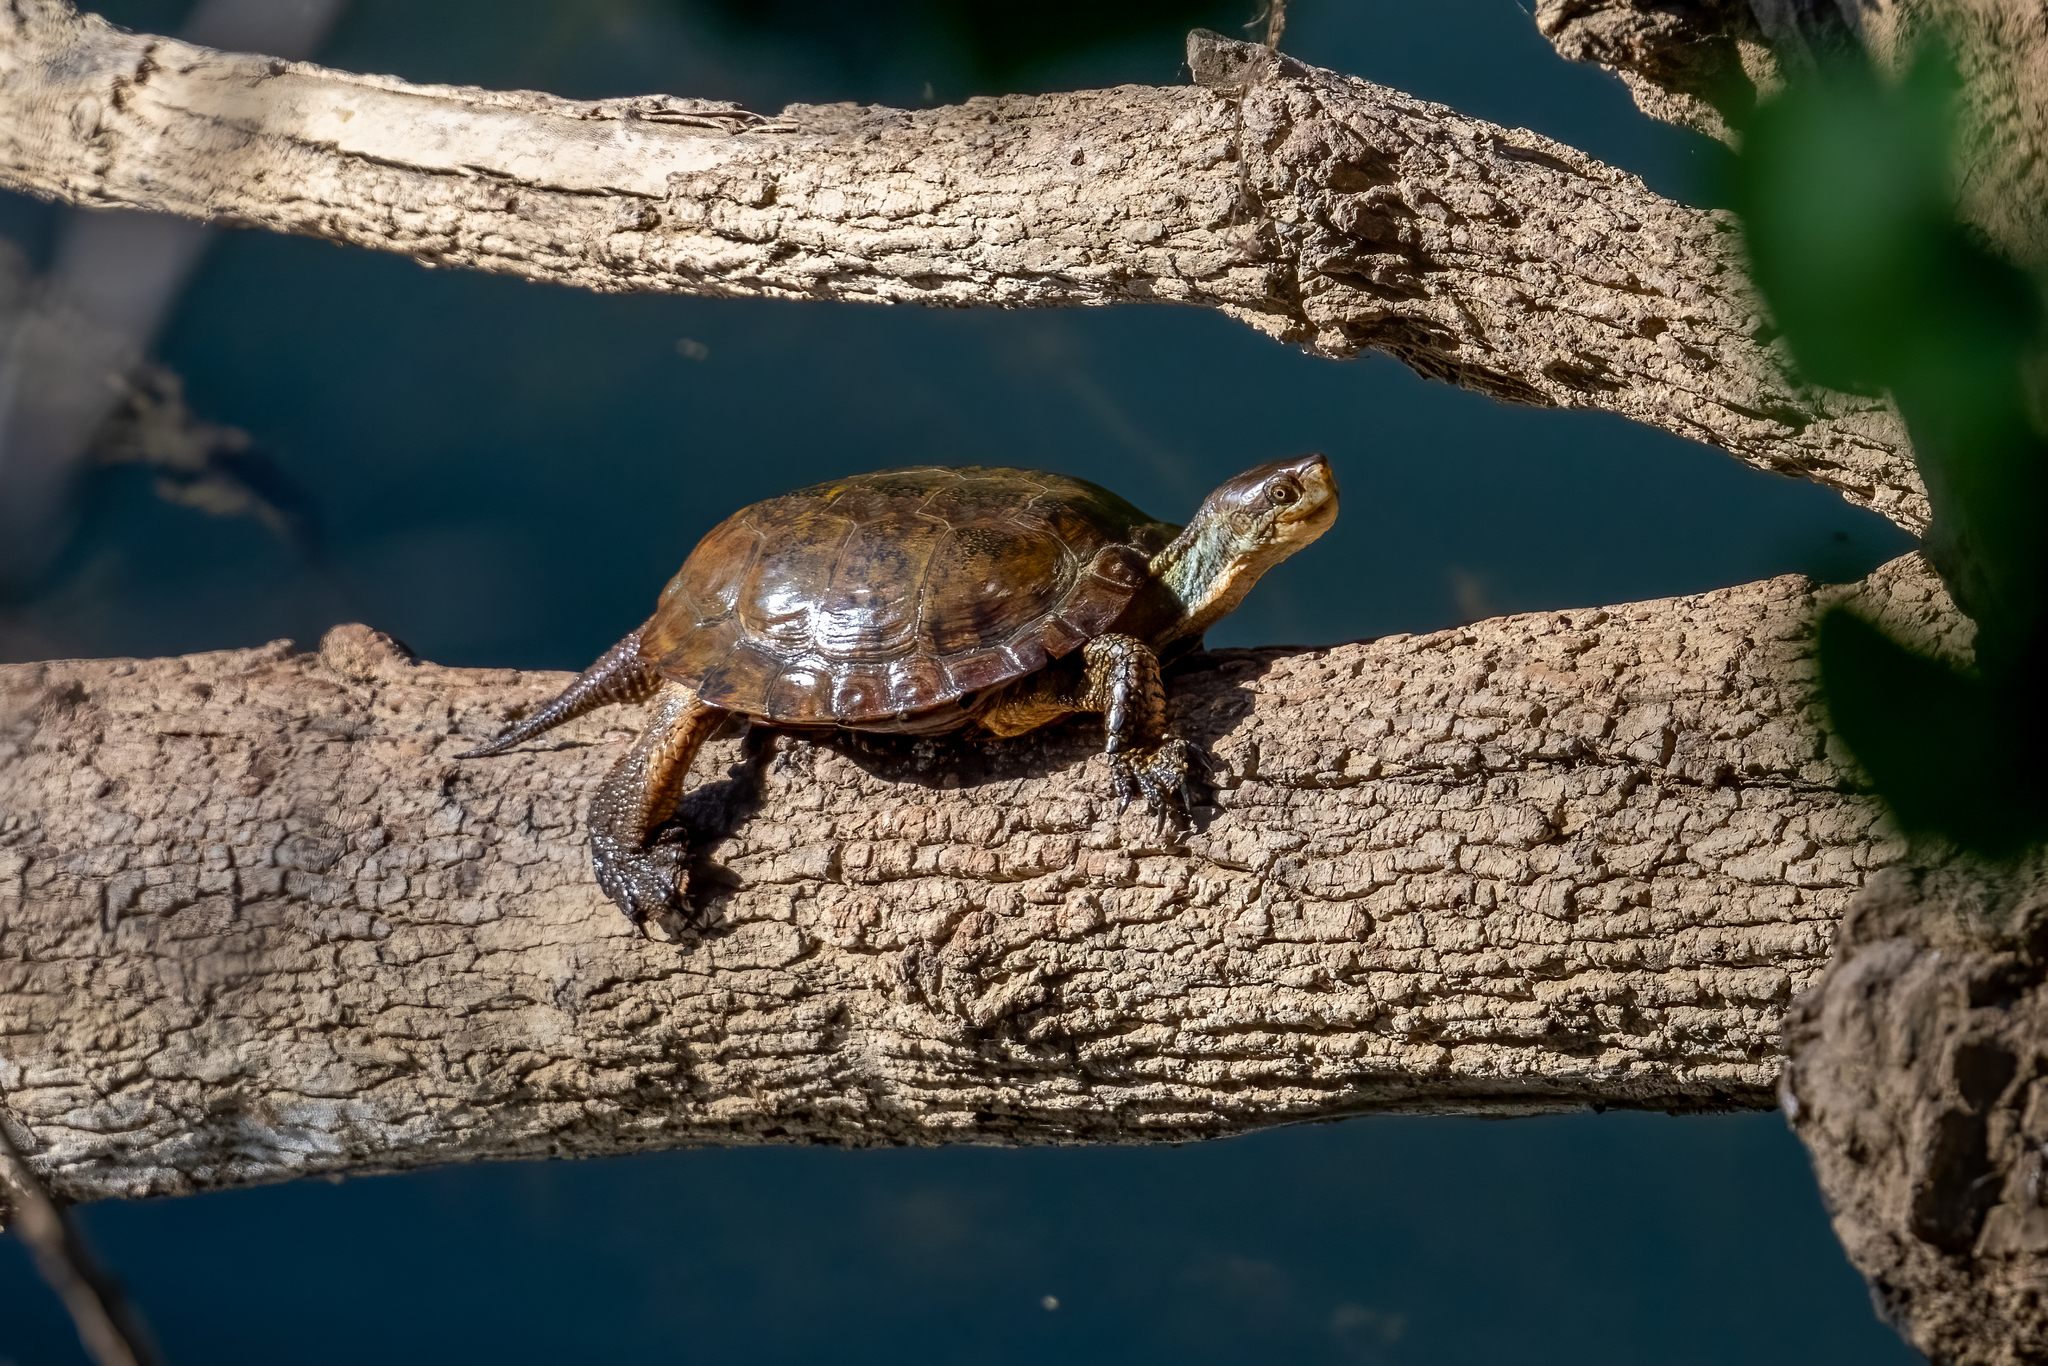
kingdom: Animalia
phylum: Chordata
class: Testudines
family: Emydidae
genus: Actinemys
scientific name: Actinemys marmorata
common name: Western pond turtle
